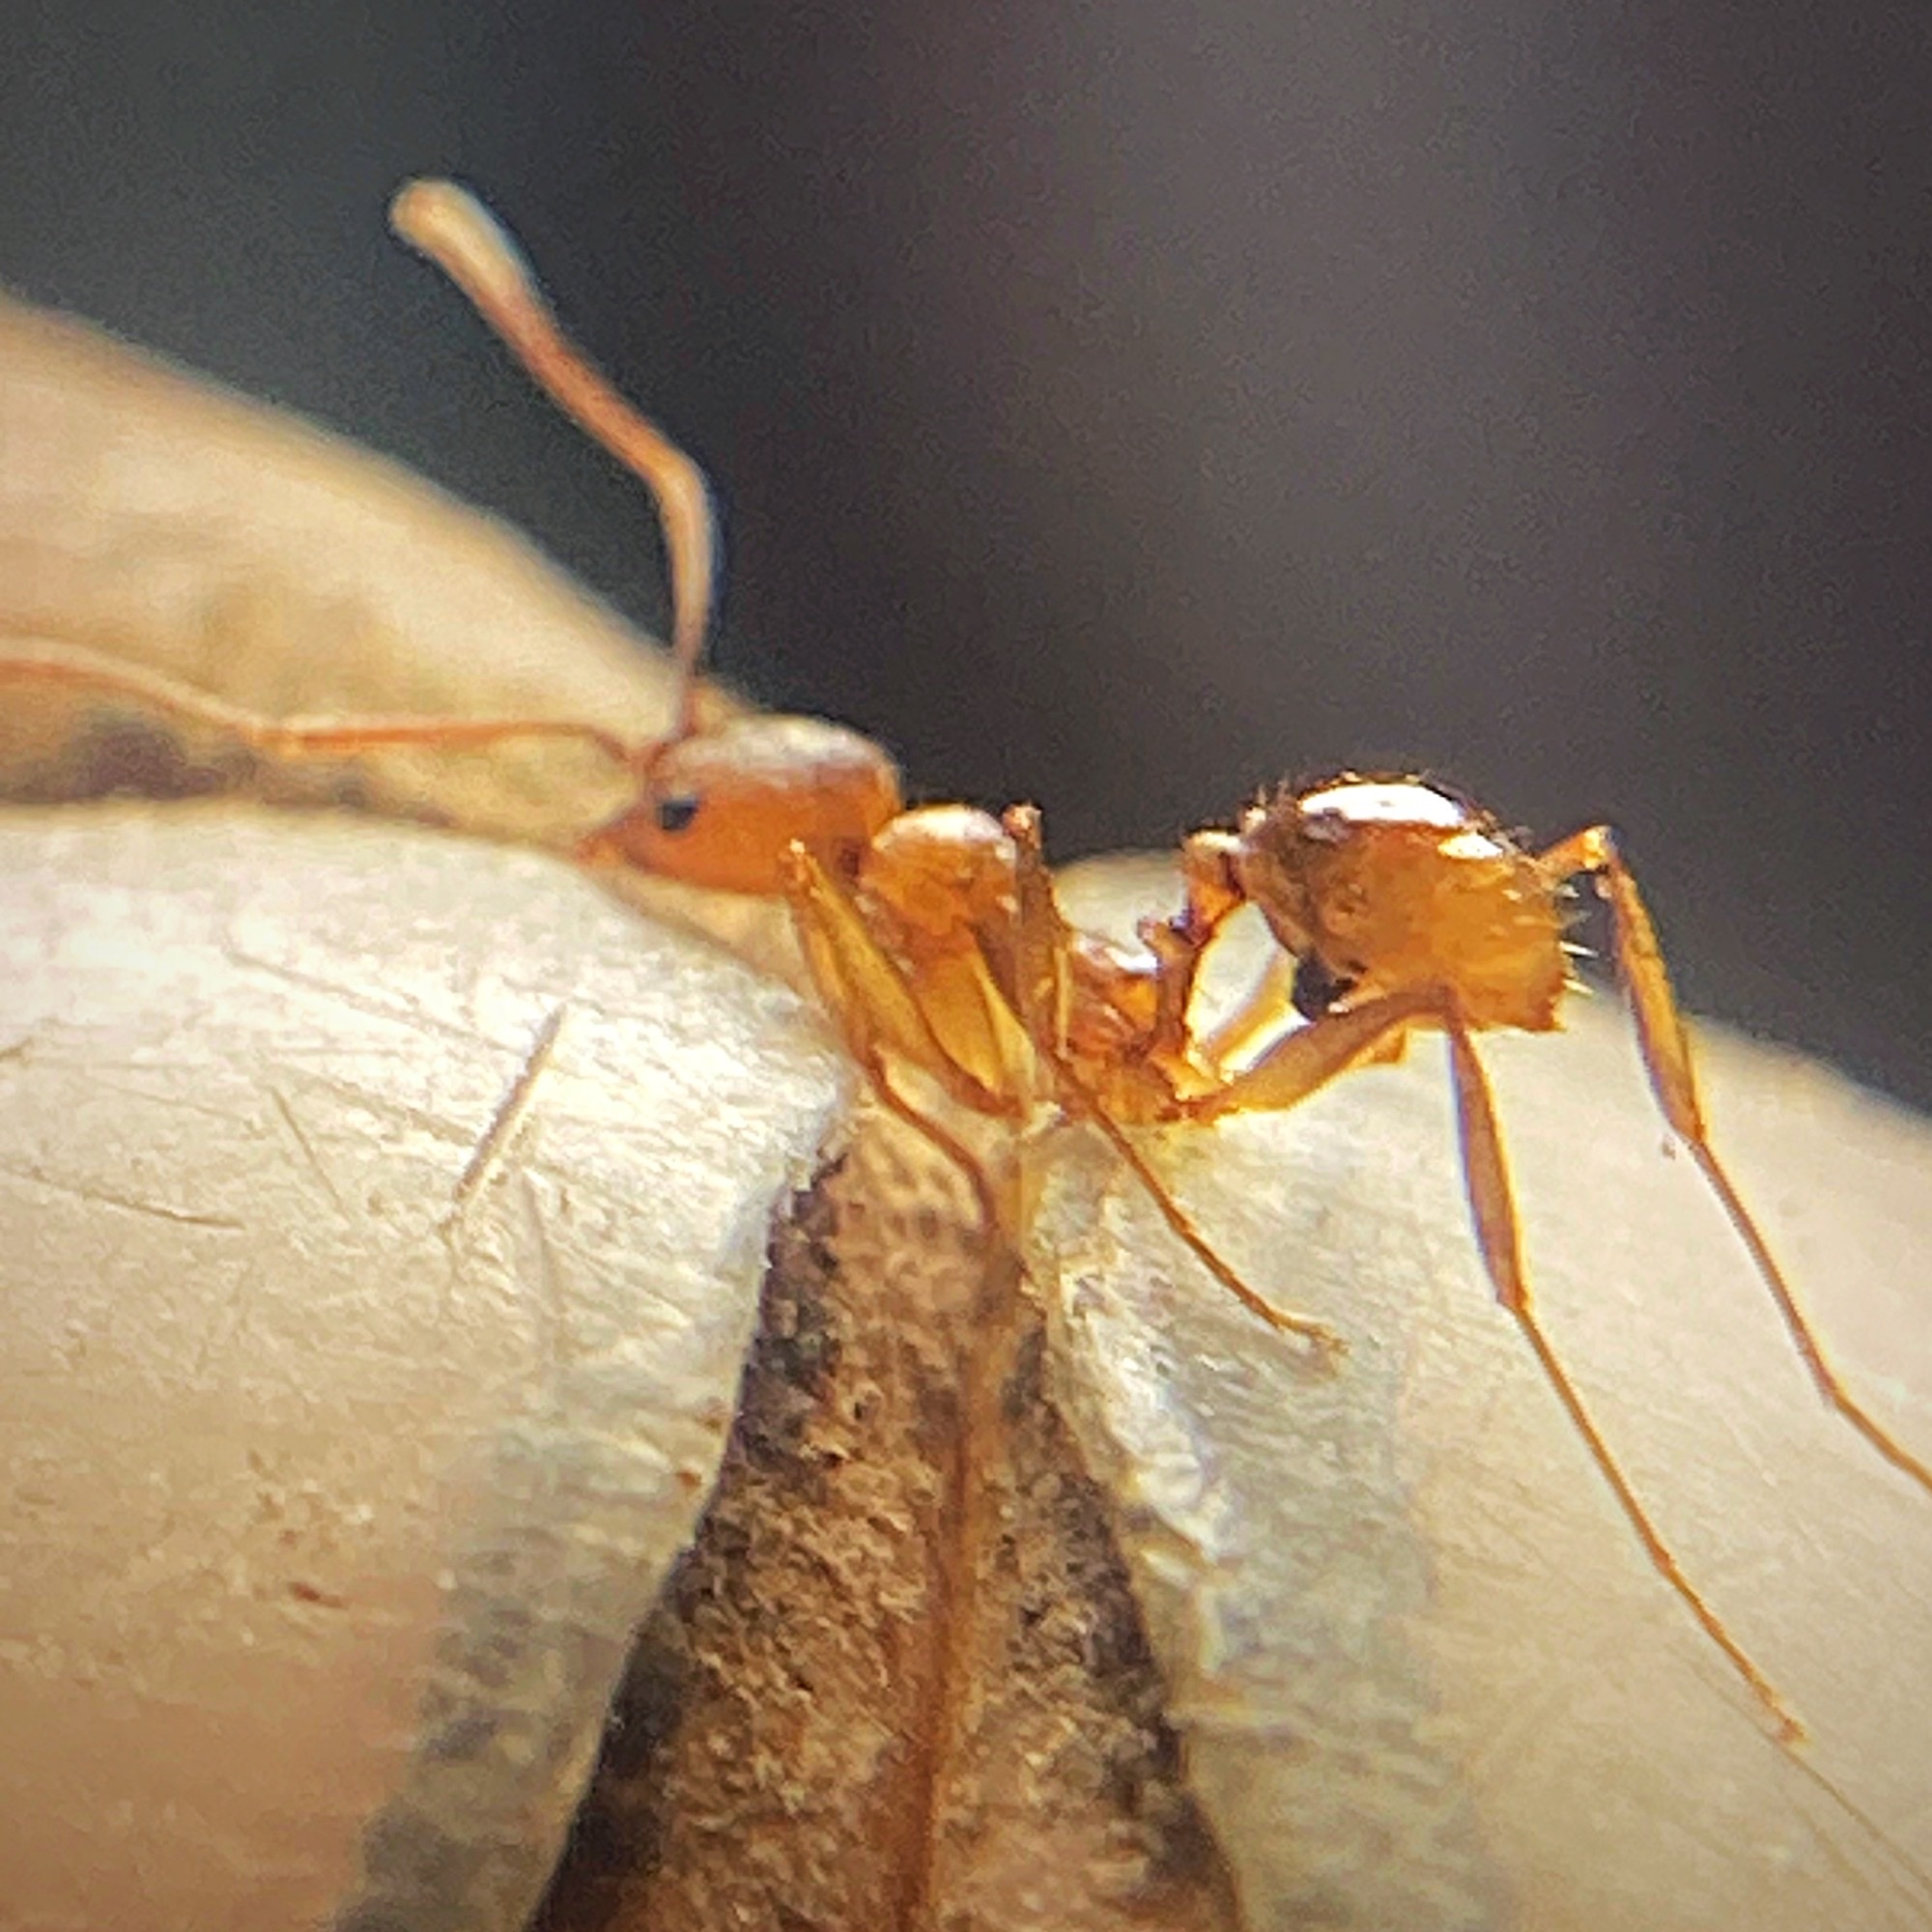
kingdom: Animalia
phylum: Arthropoda
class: Insecta
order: Hymenoptera
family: Formicidae
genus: Aphaenogaster
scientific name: Aphaenogaster texana
